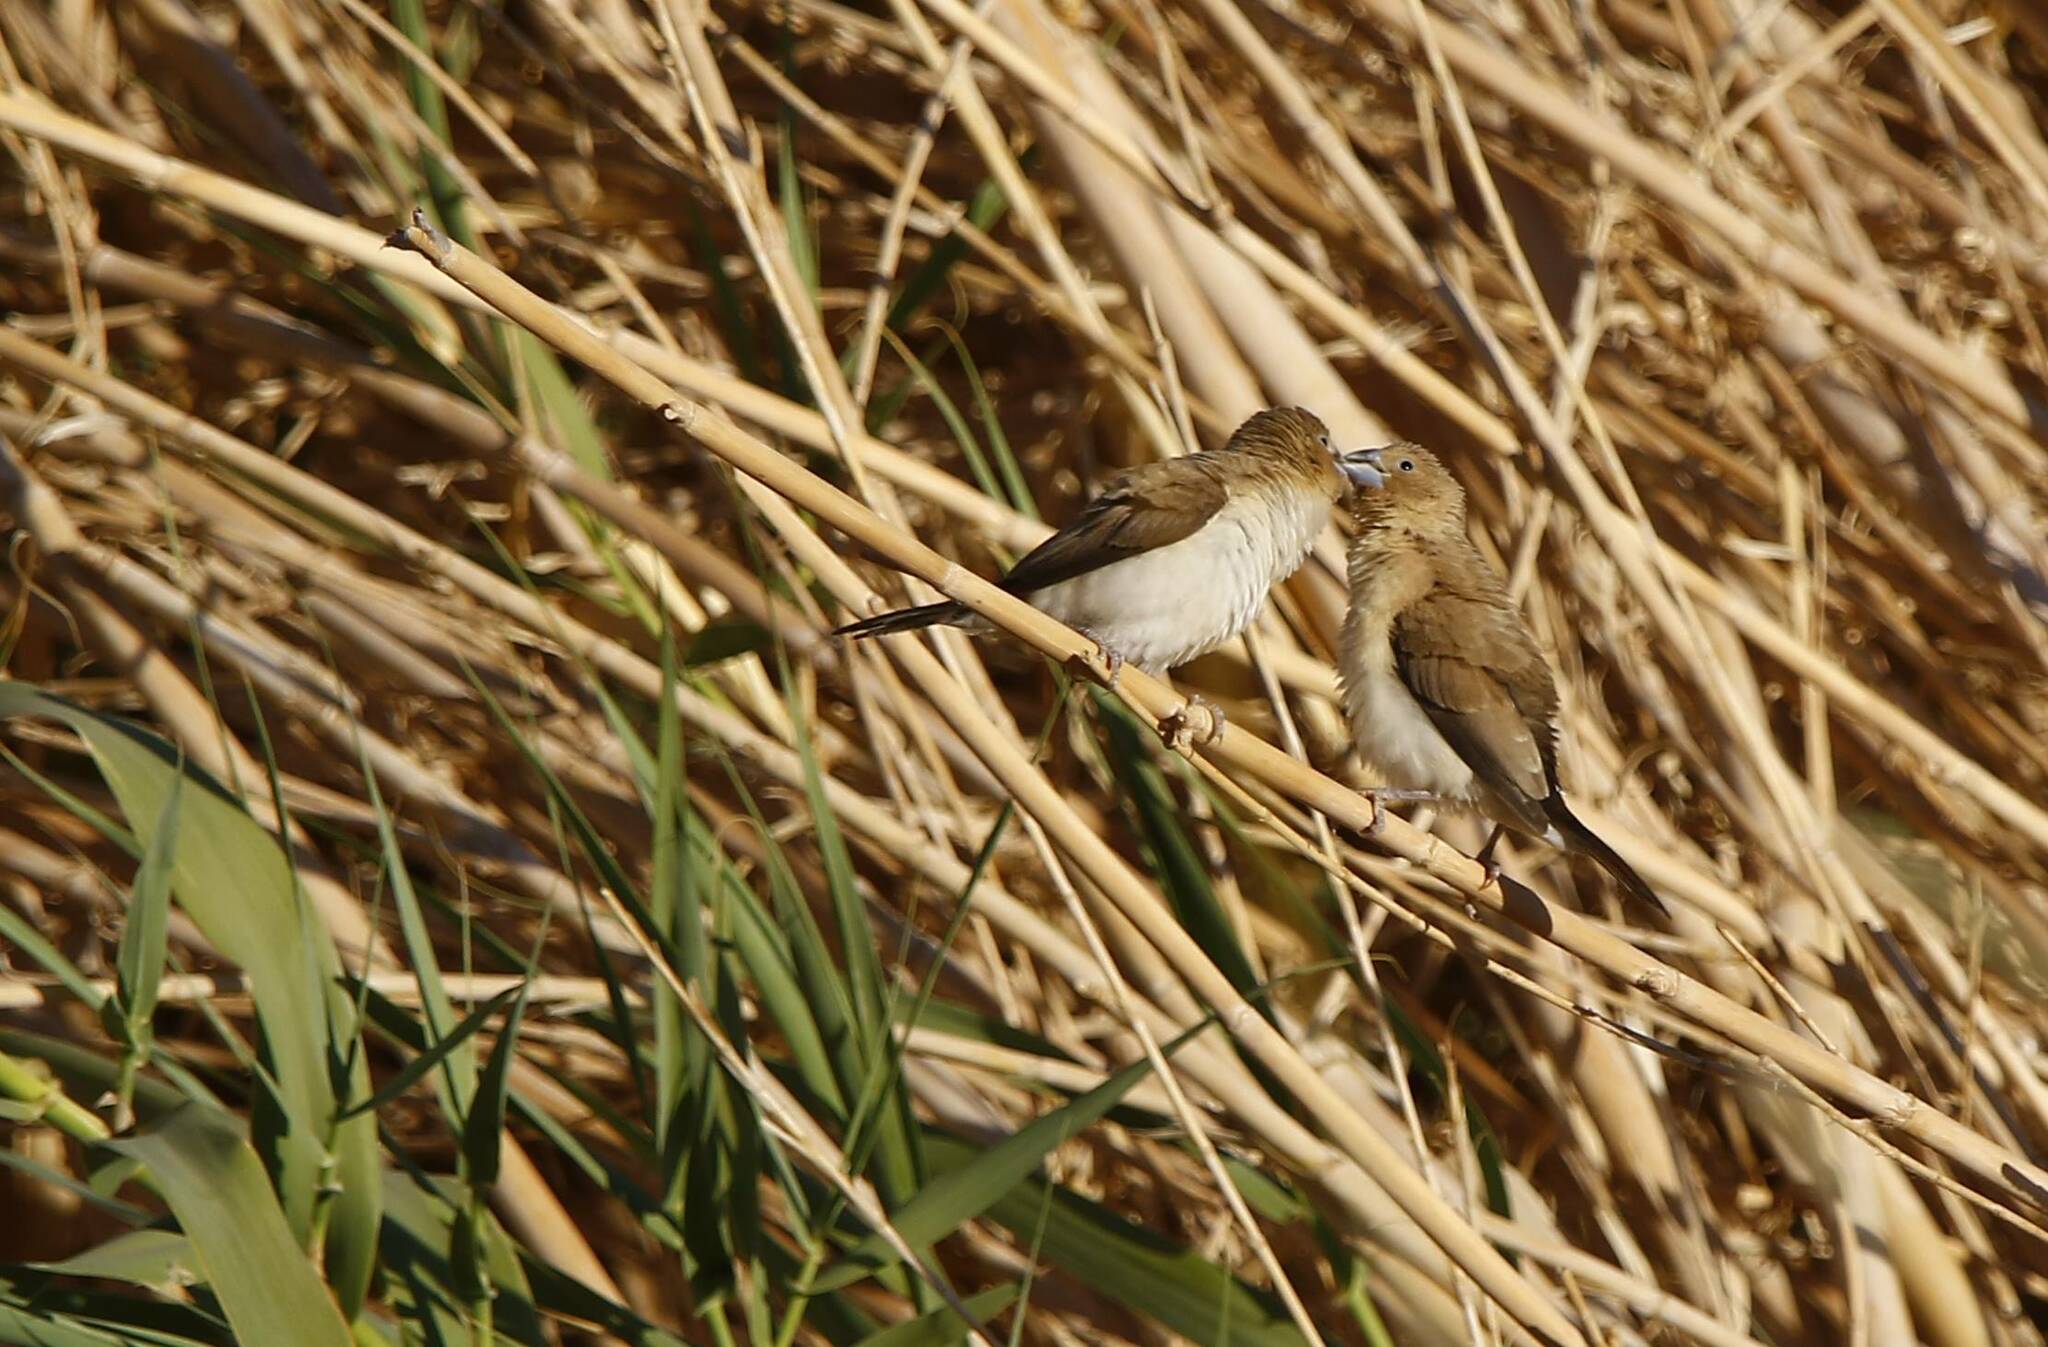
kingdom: Animalia
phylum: Chordata
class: Aves
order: Passeriformes
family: Estrildidae
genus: Euodice
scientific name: Euodice cantans
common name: African silverbill
